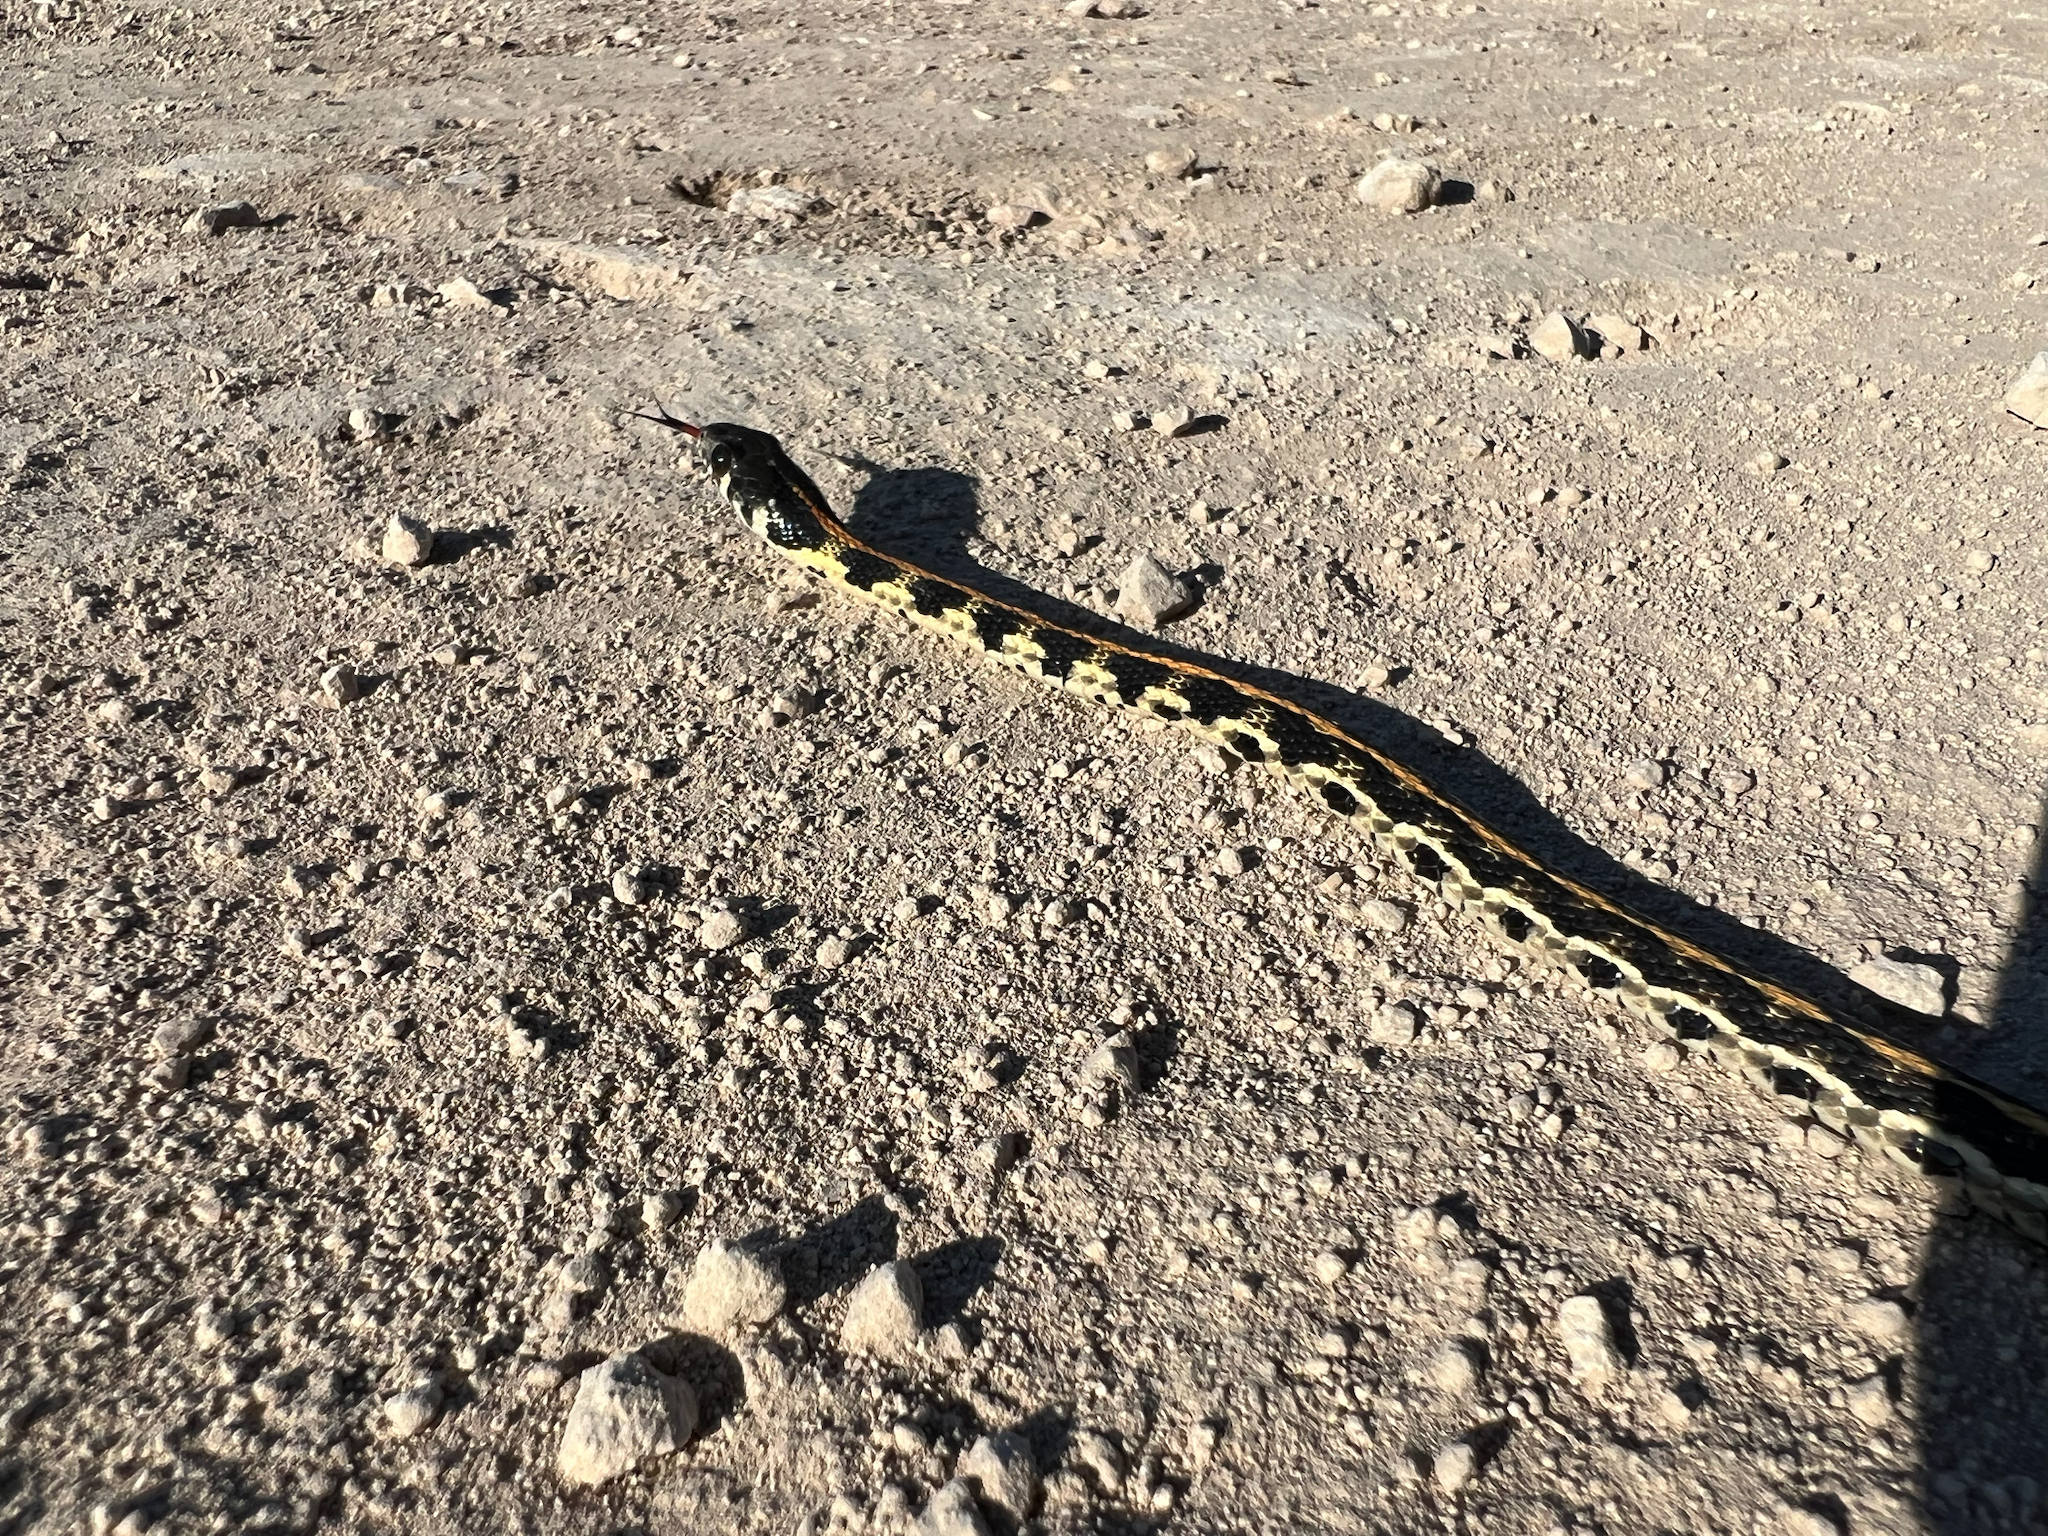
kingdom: Animalia
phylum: Chordata
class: Squamata
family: Colubridae
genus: Thamnophis
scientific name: Thamnophis cyrtopsis
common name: Black-necked gartersnake
